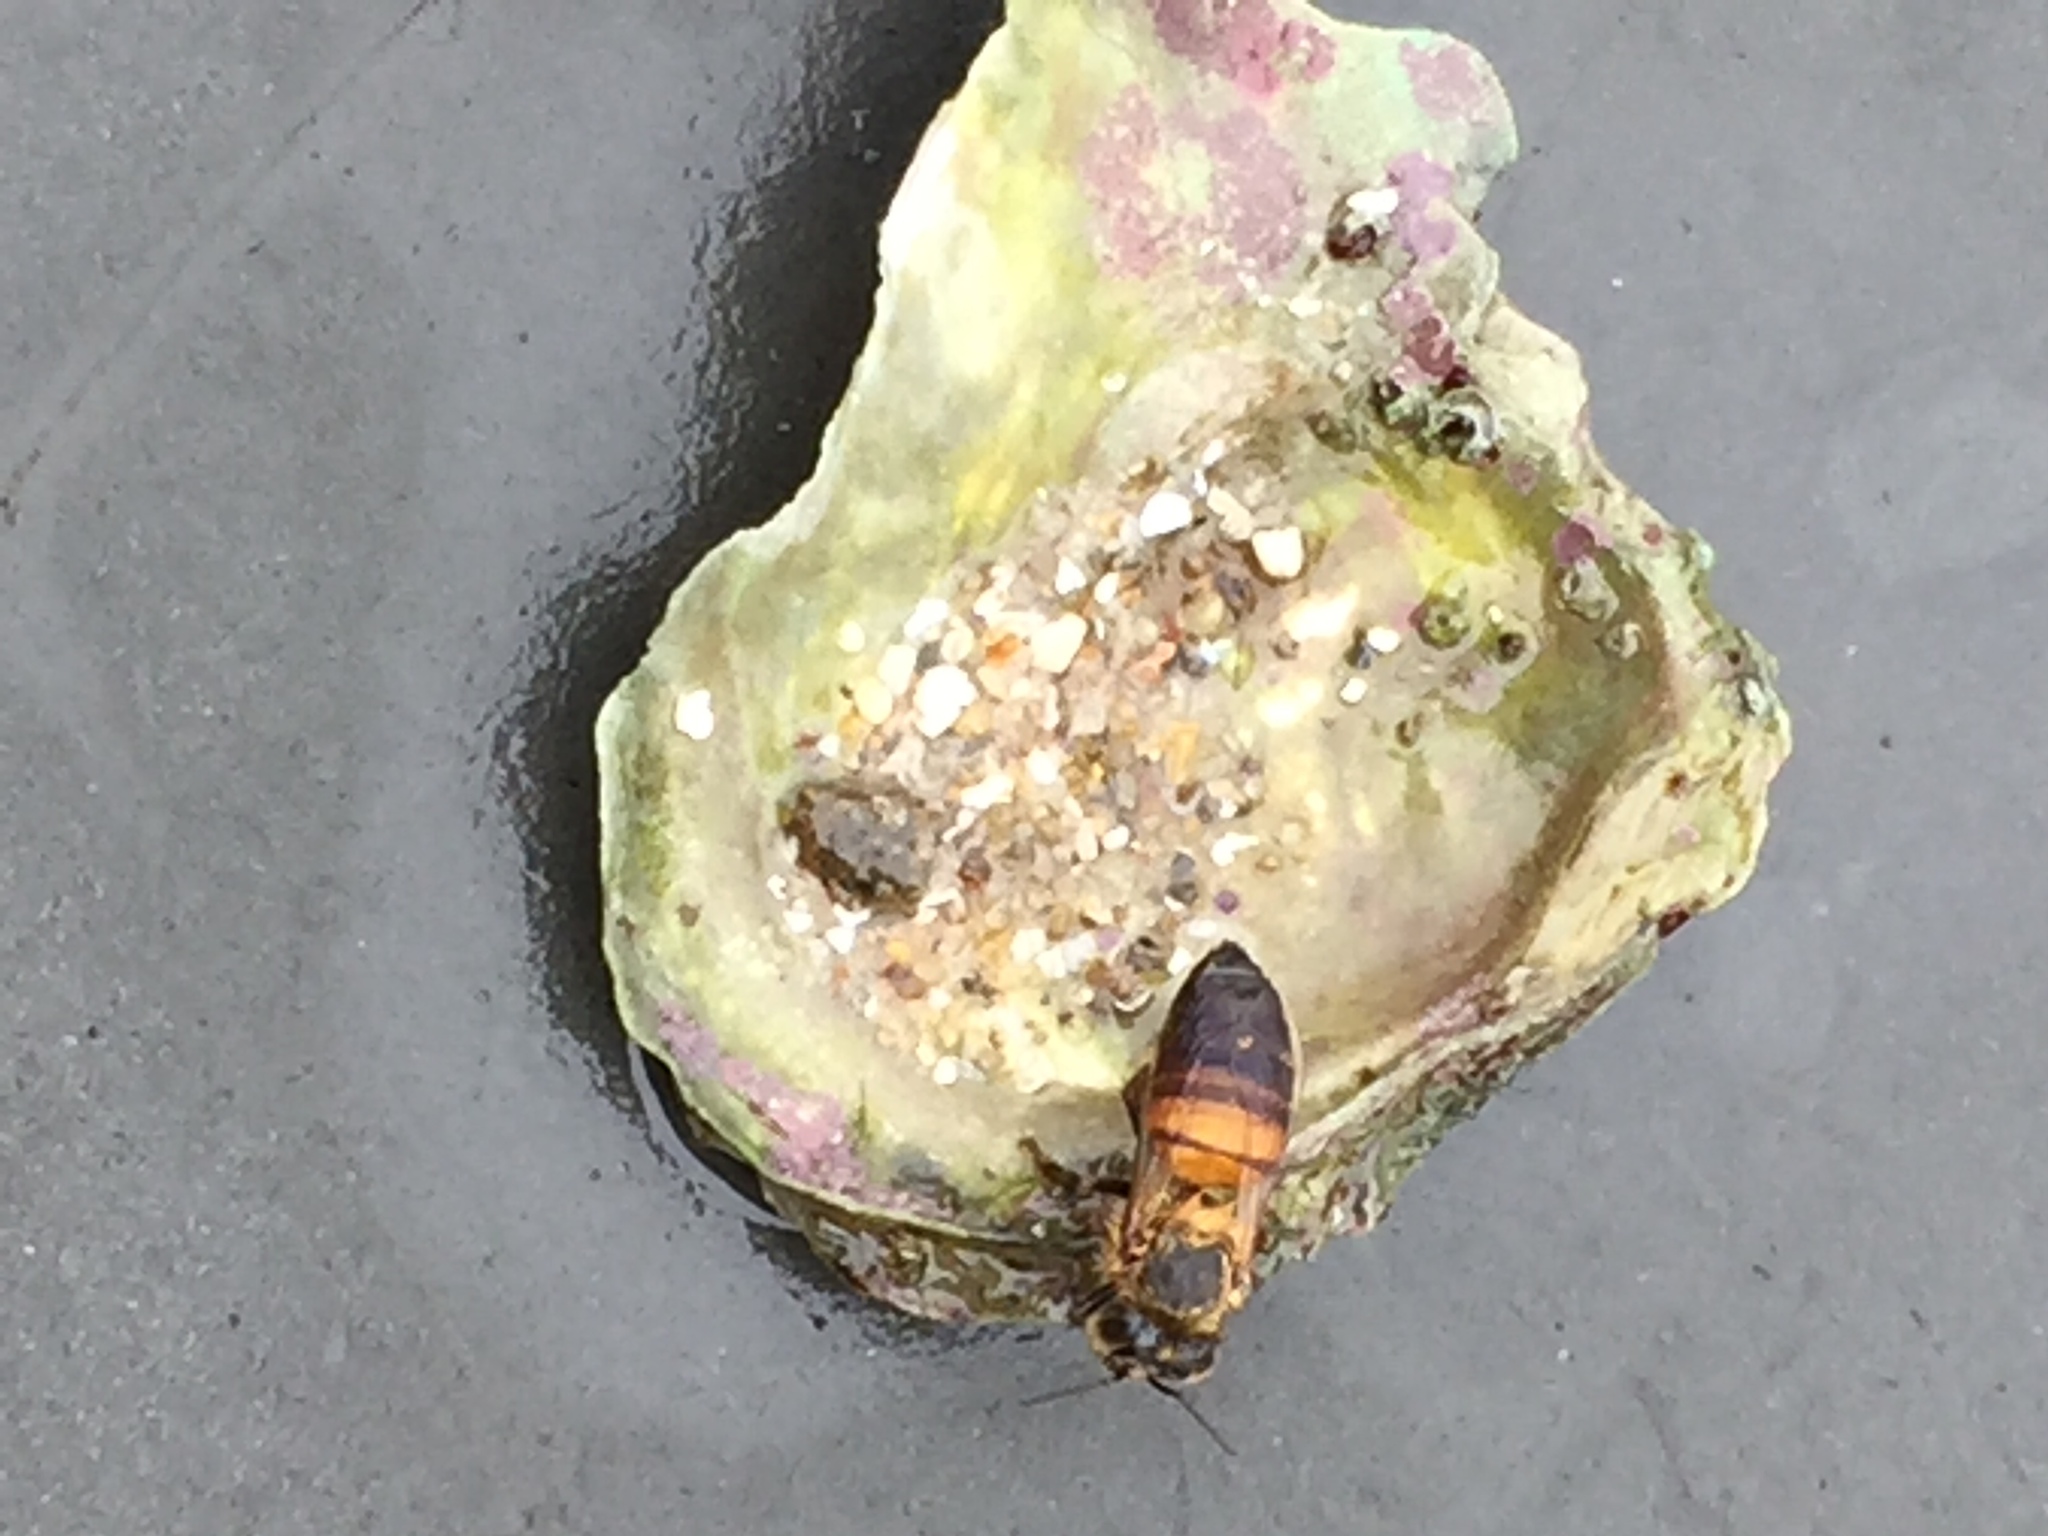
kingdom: Animalia
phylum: Arthropoda
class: Insecta
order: Hymenoptera
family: Apidae
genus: Apis
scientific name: Apis mellifera
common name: Honey bee
